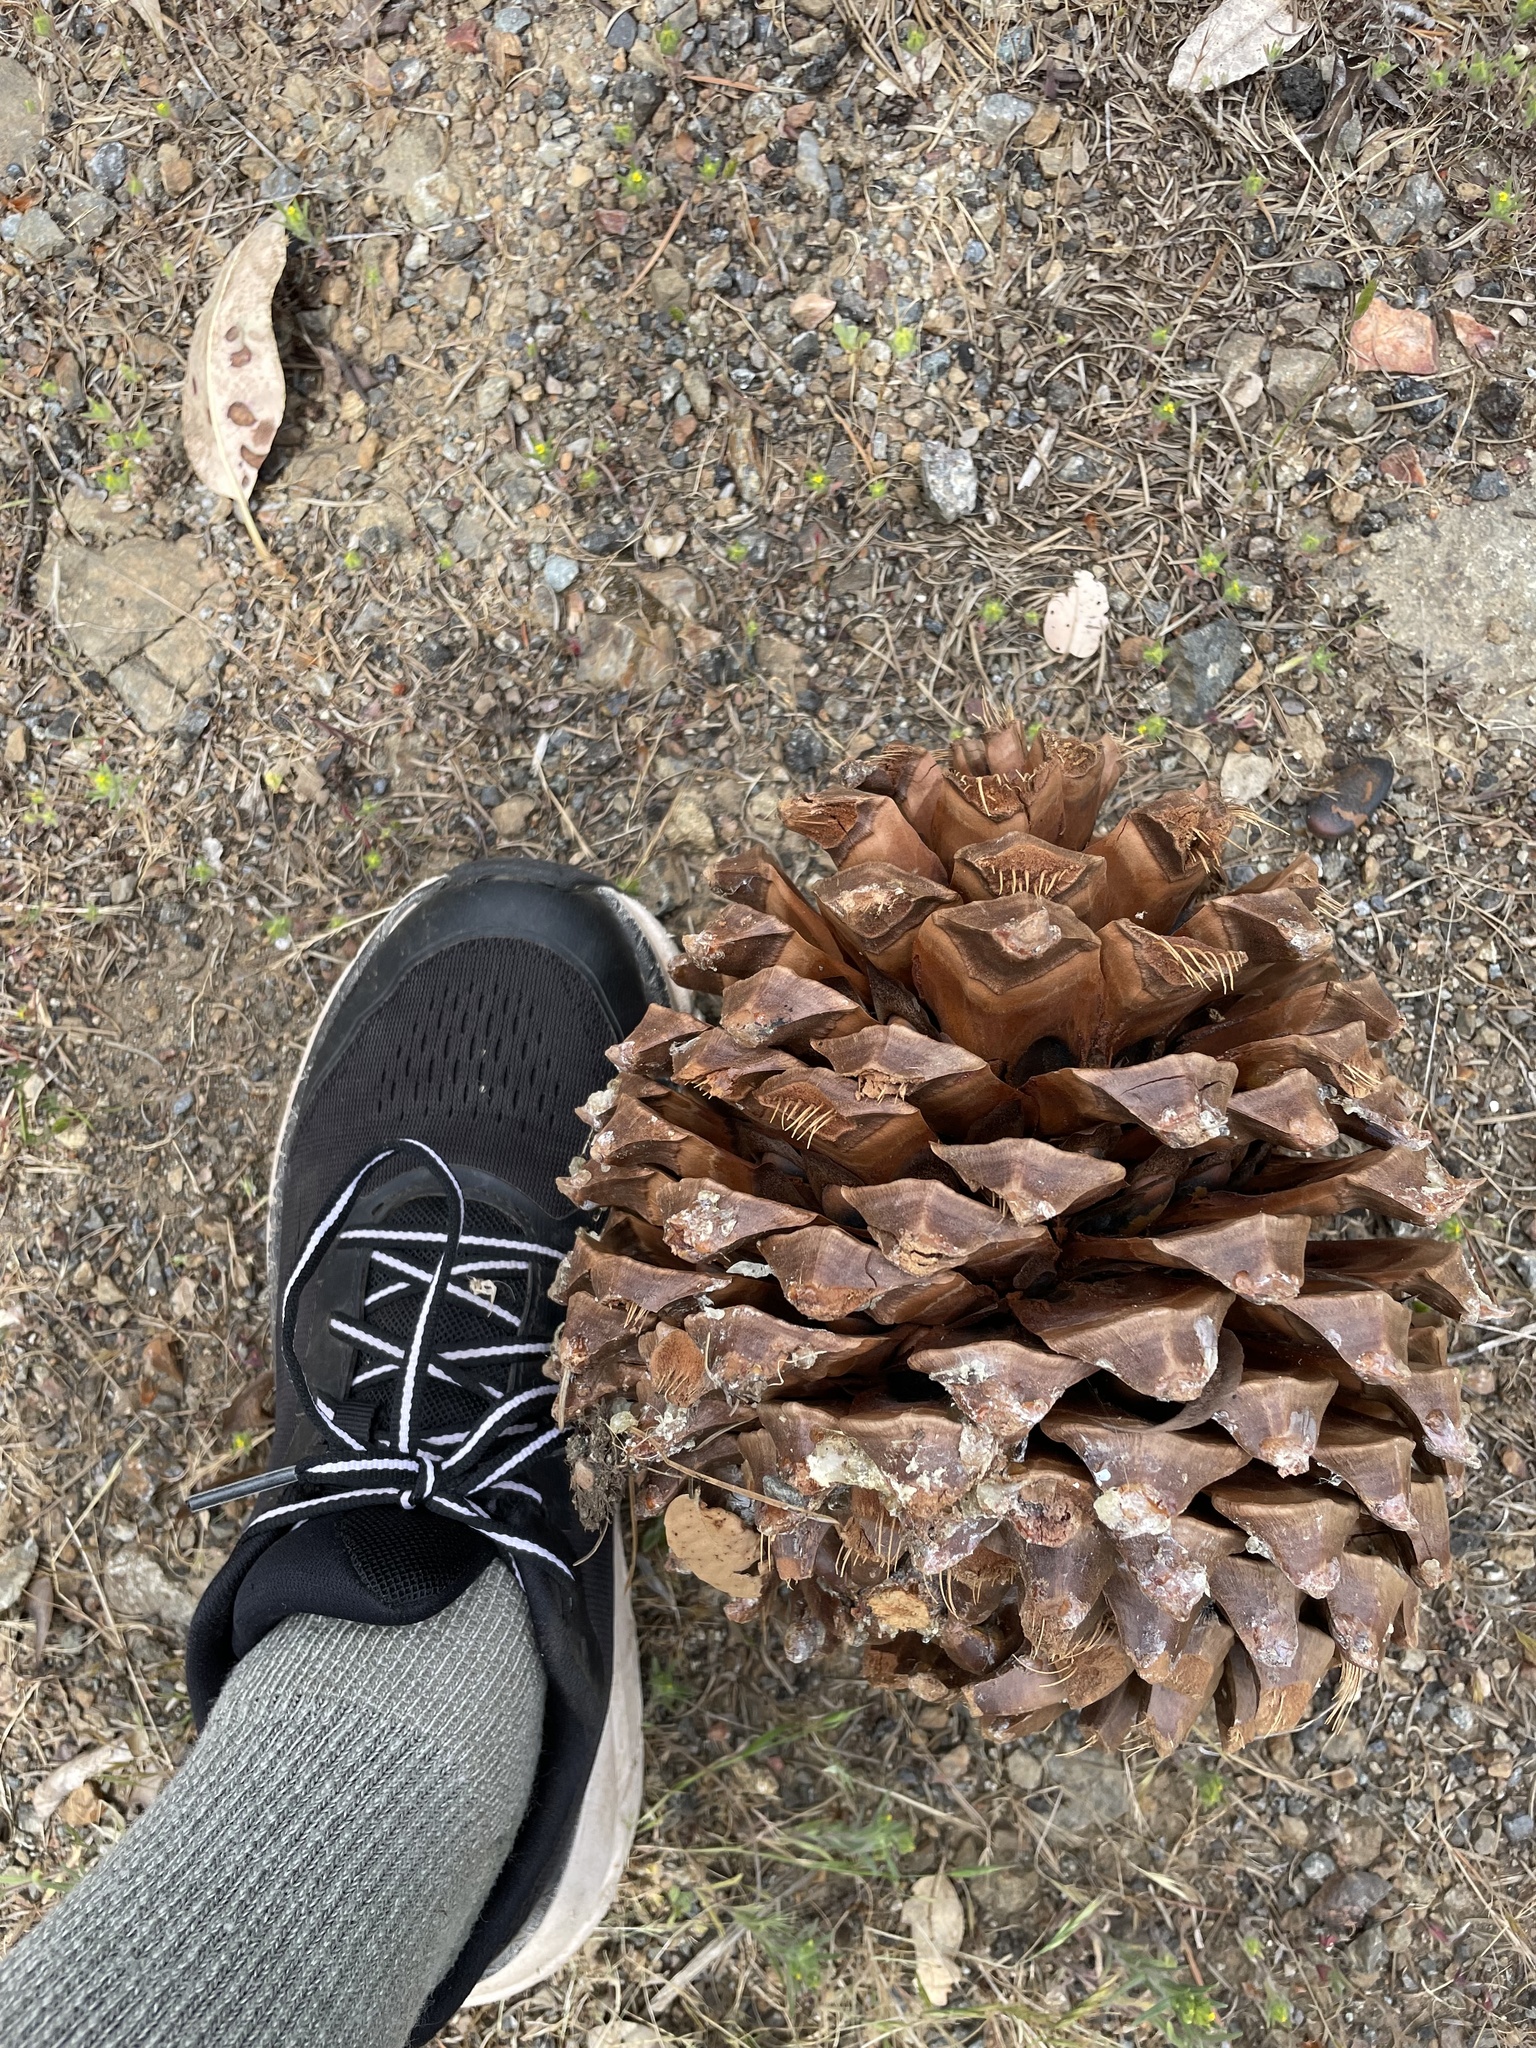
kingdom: Plantae
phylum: Tracheophyta
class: Pinopsida
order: Pinales
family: Pinaceae
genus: Pinus
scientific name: Pinus sabiniana
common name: Bull pine
